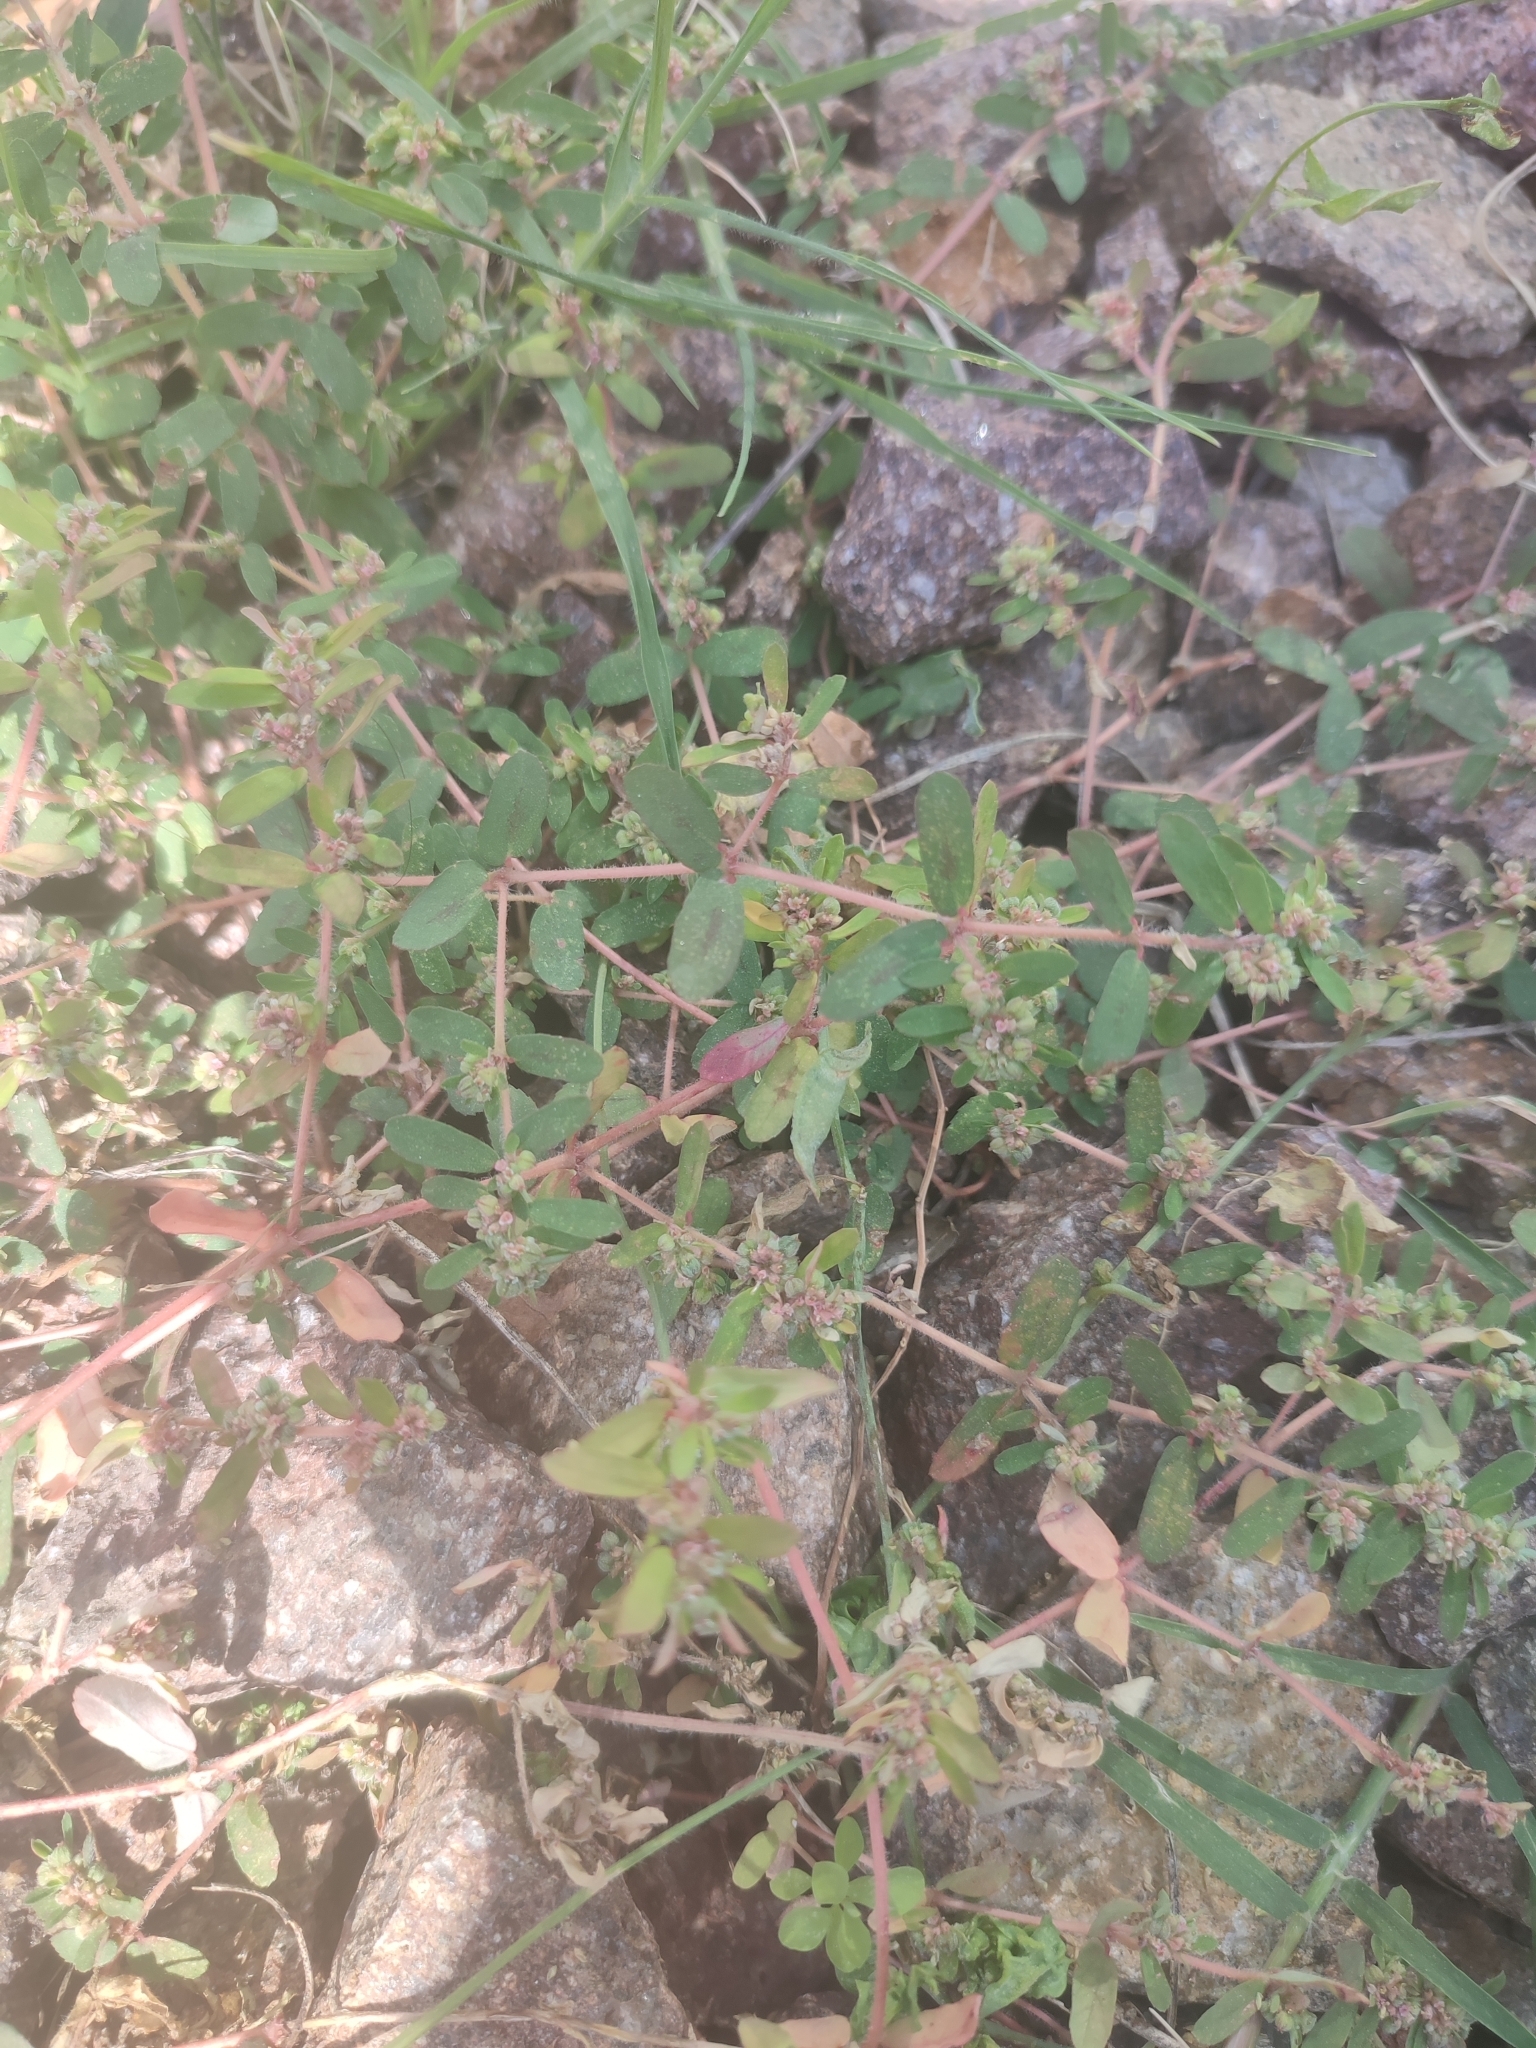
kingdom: Plantae
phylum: Tracheophyta
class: Magnoliopsida
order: Malpighiales
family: Euphorbiaceae
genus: Euphorbia
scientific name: Euphorbia maculata
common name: Spotted spurge
